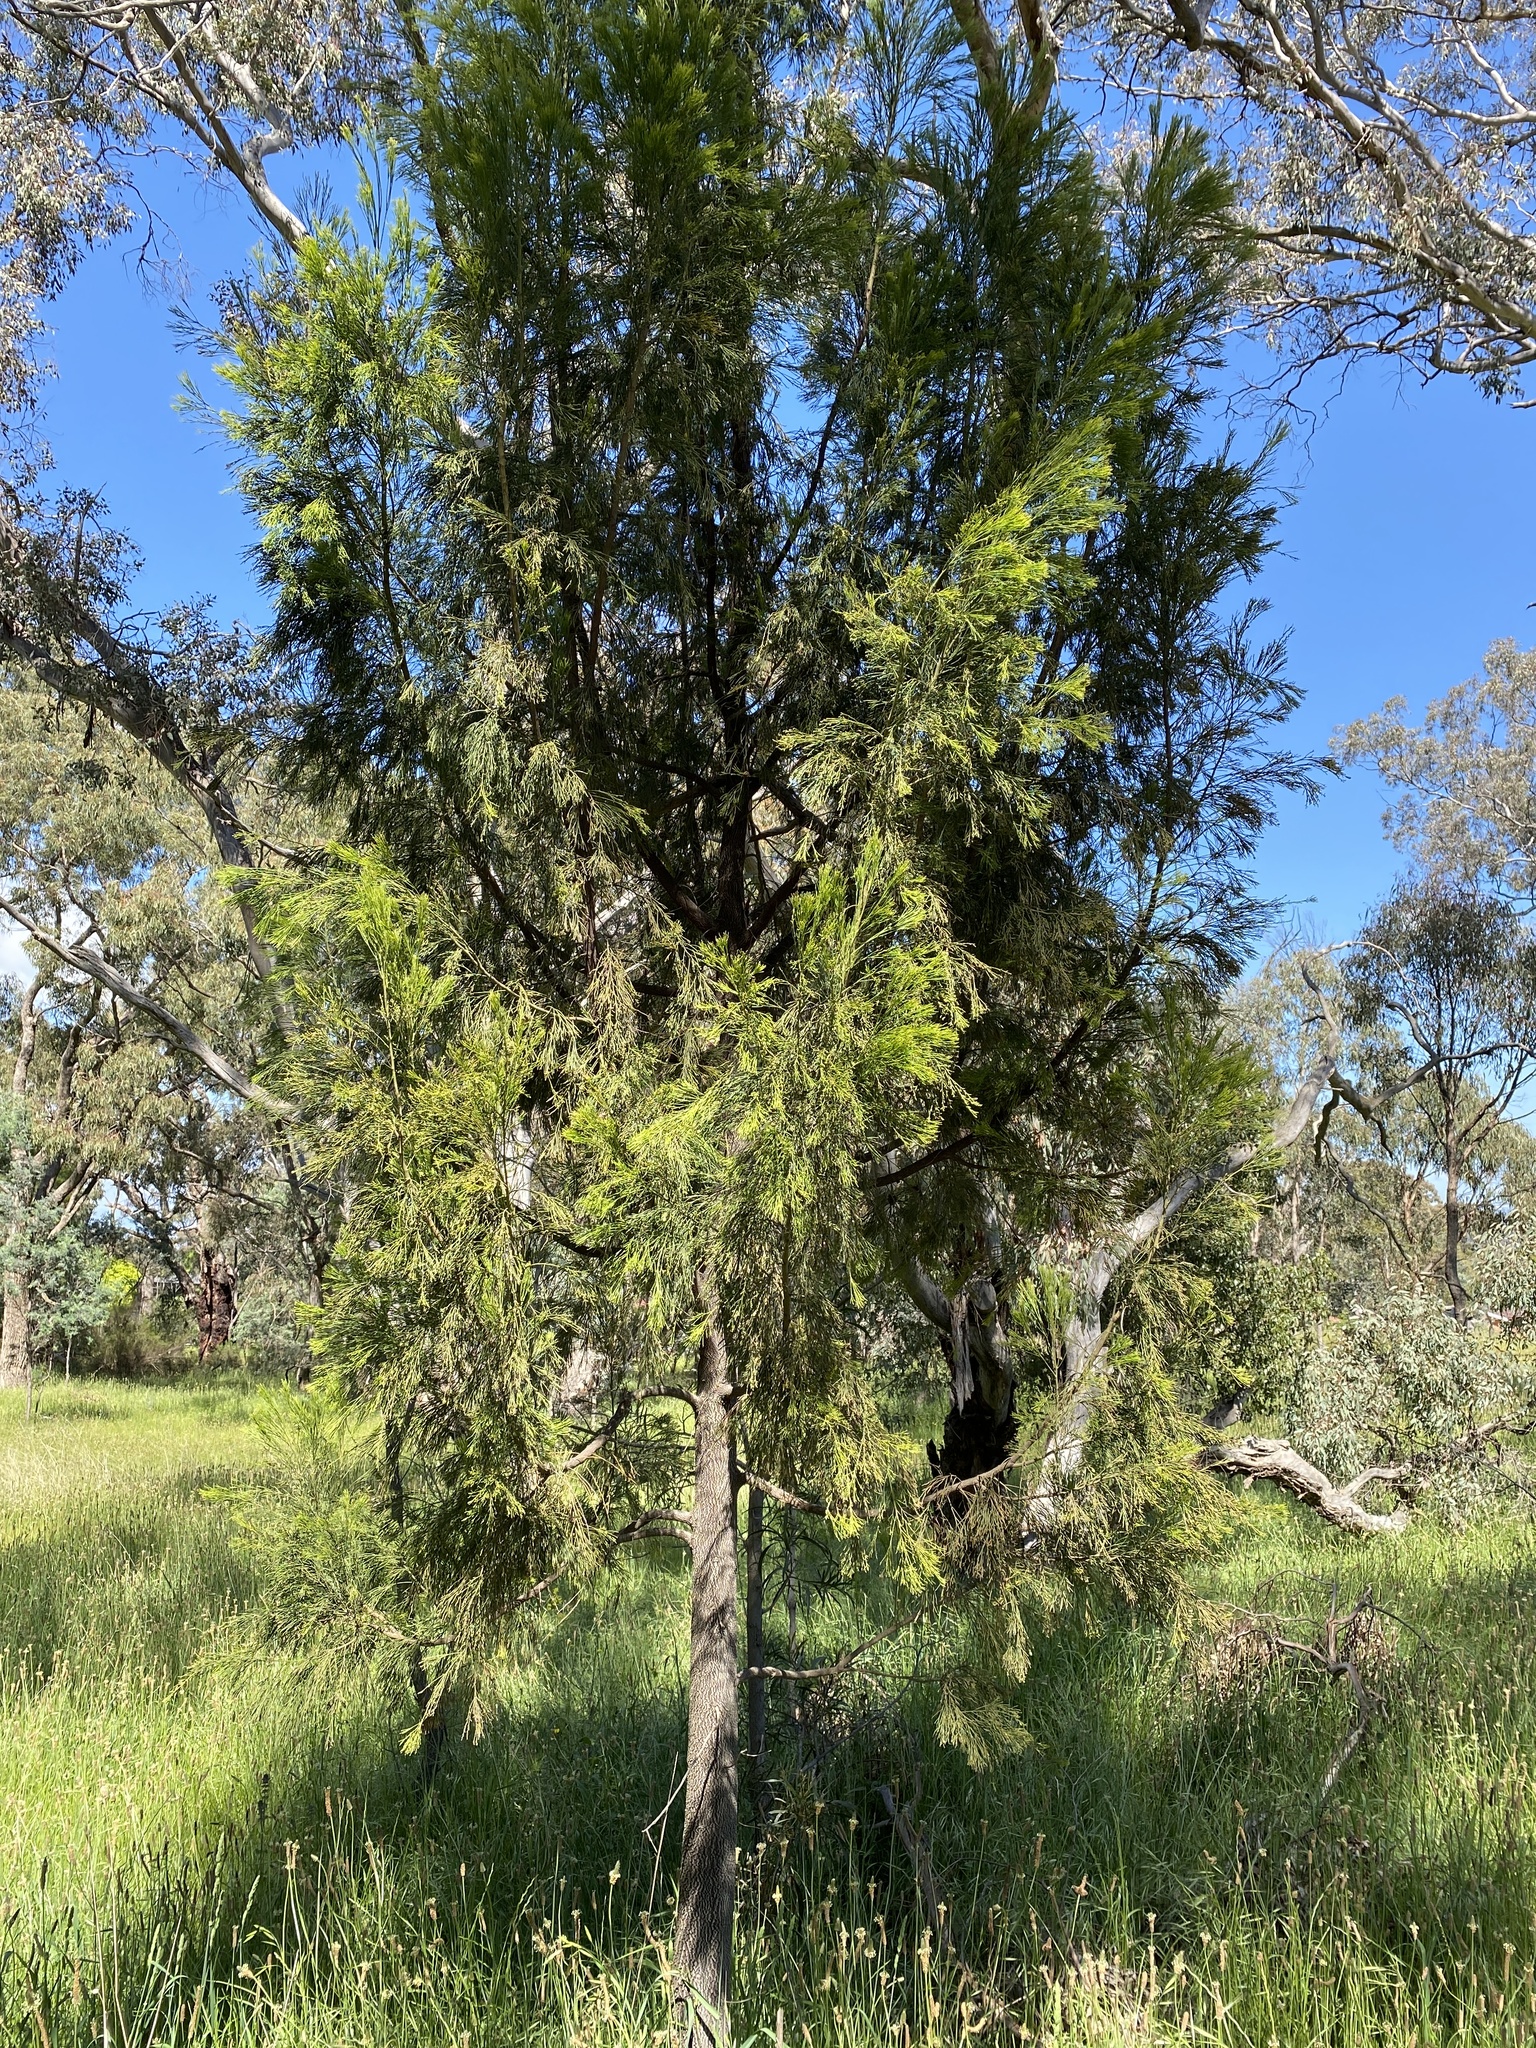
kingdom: Plantae
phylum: Tracheophyta
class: Magnoliopsida
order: Santalales
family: Santalaceae
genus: Exocarpos
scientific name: Exocarpos cupressiformis
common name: Cherry ballart
